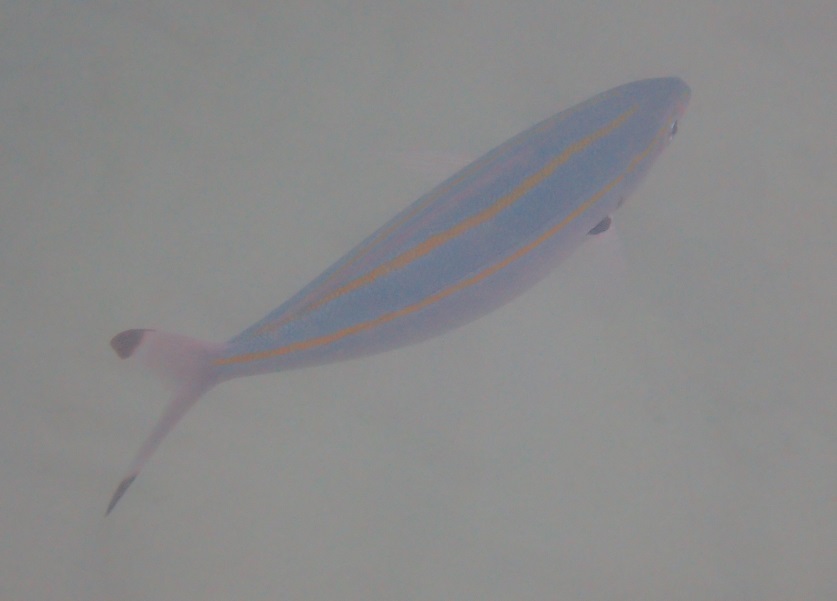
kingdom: Animalia
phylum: Chordata
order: Perciformes
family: Caesionidae
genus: Pterocaesio
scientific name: Pterocaesio digramma
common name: Double-lined fusilier
